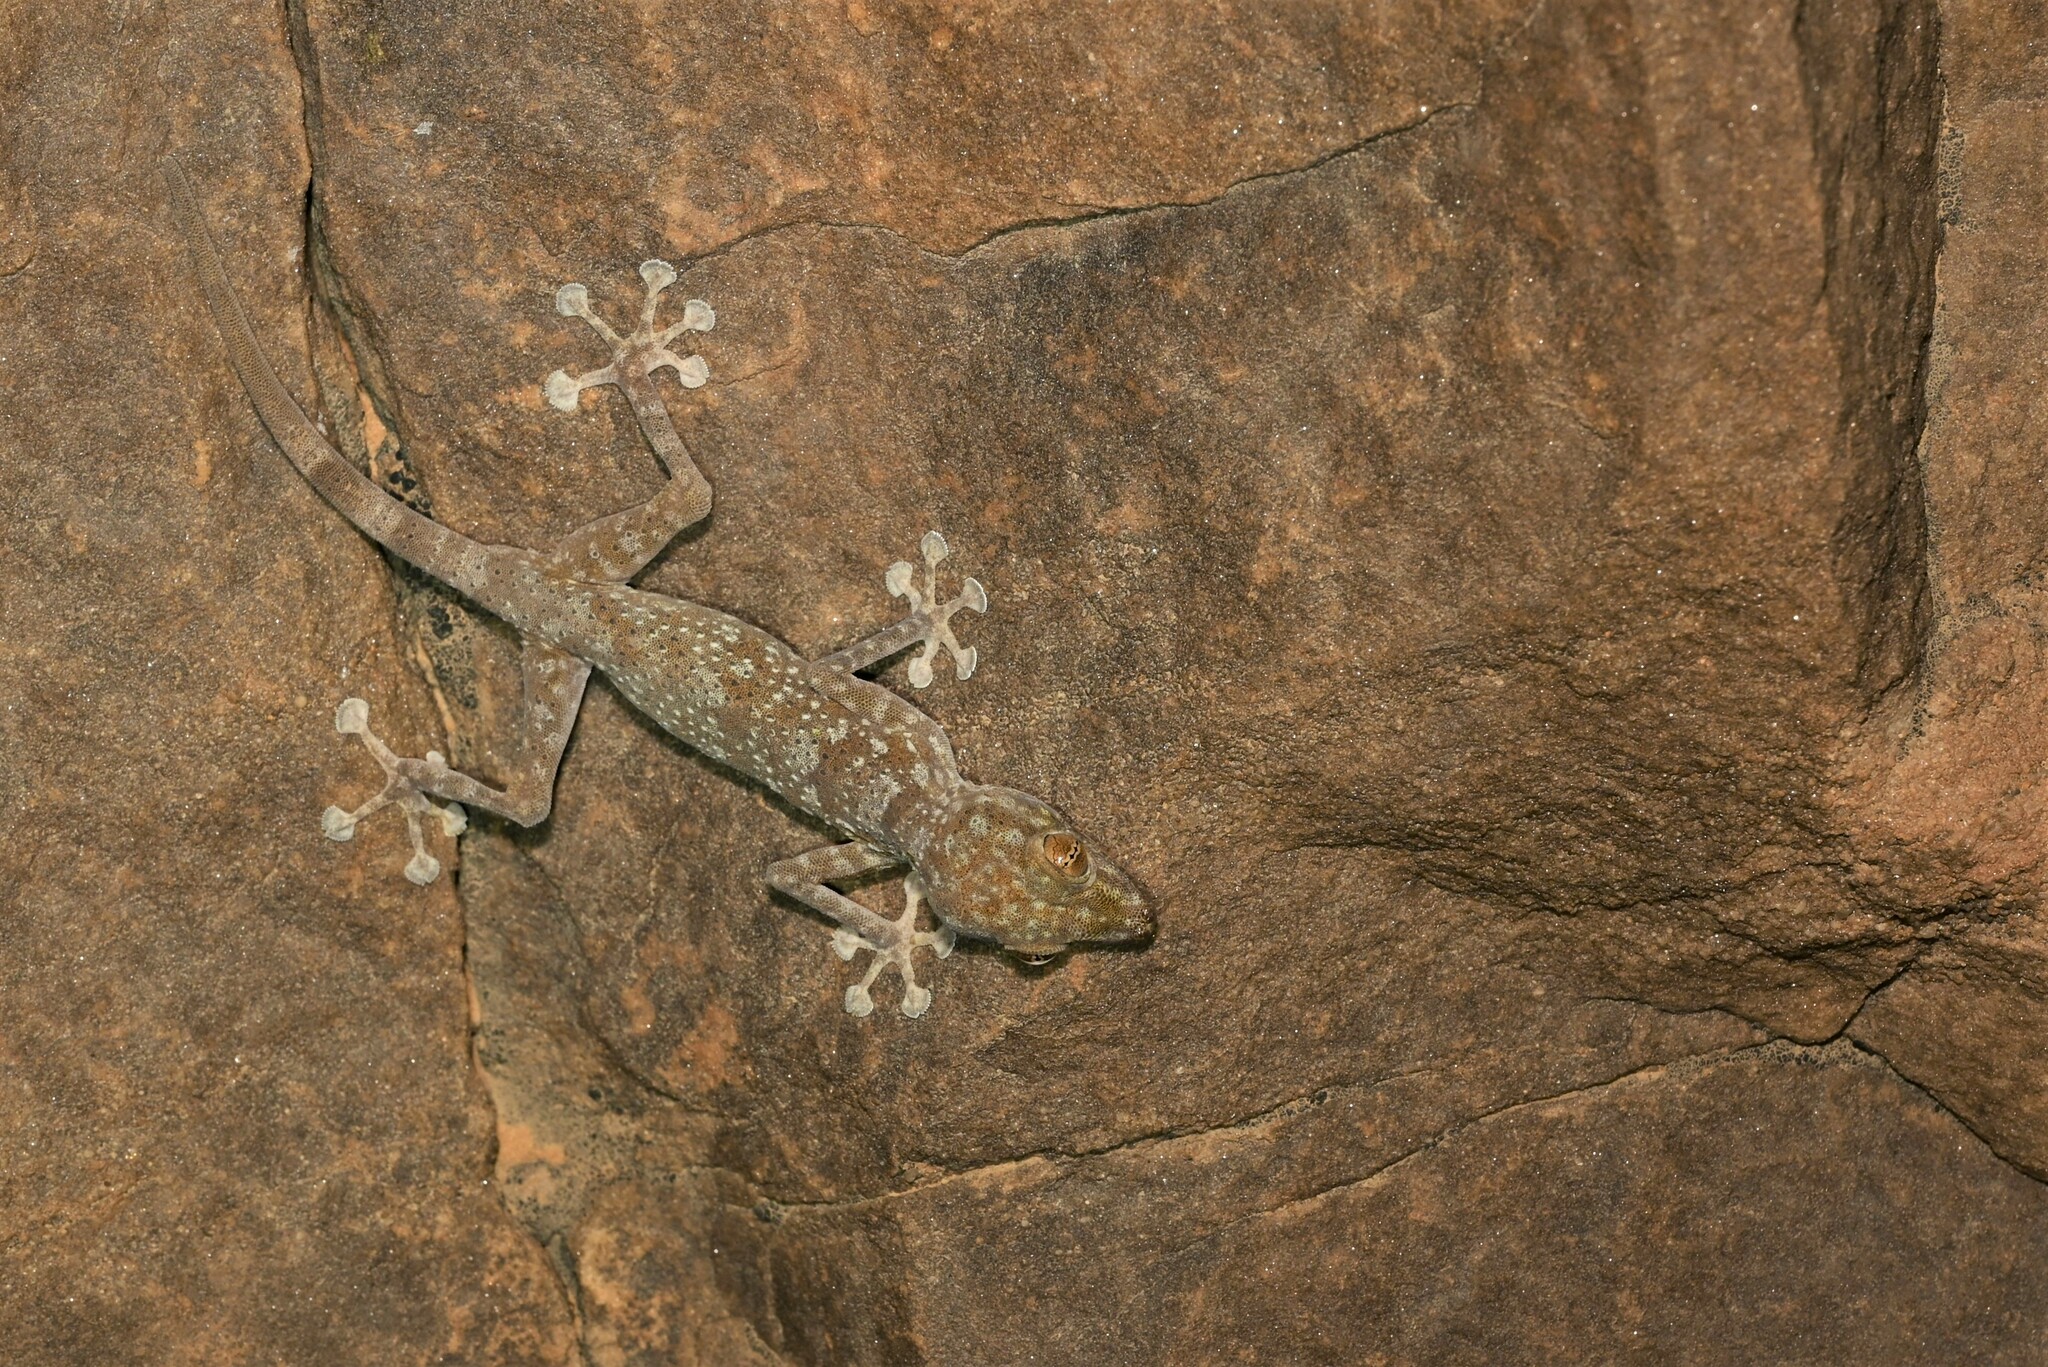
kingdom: Animalia
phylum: Chordata
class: Squamata
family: Phyllodactylidae
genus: Ptyodactylus
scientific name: Ptyodactylus hasselquistii
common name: Hasselquist’s fan-footed gecko
